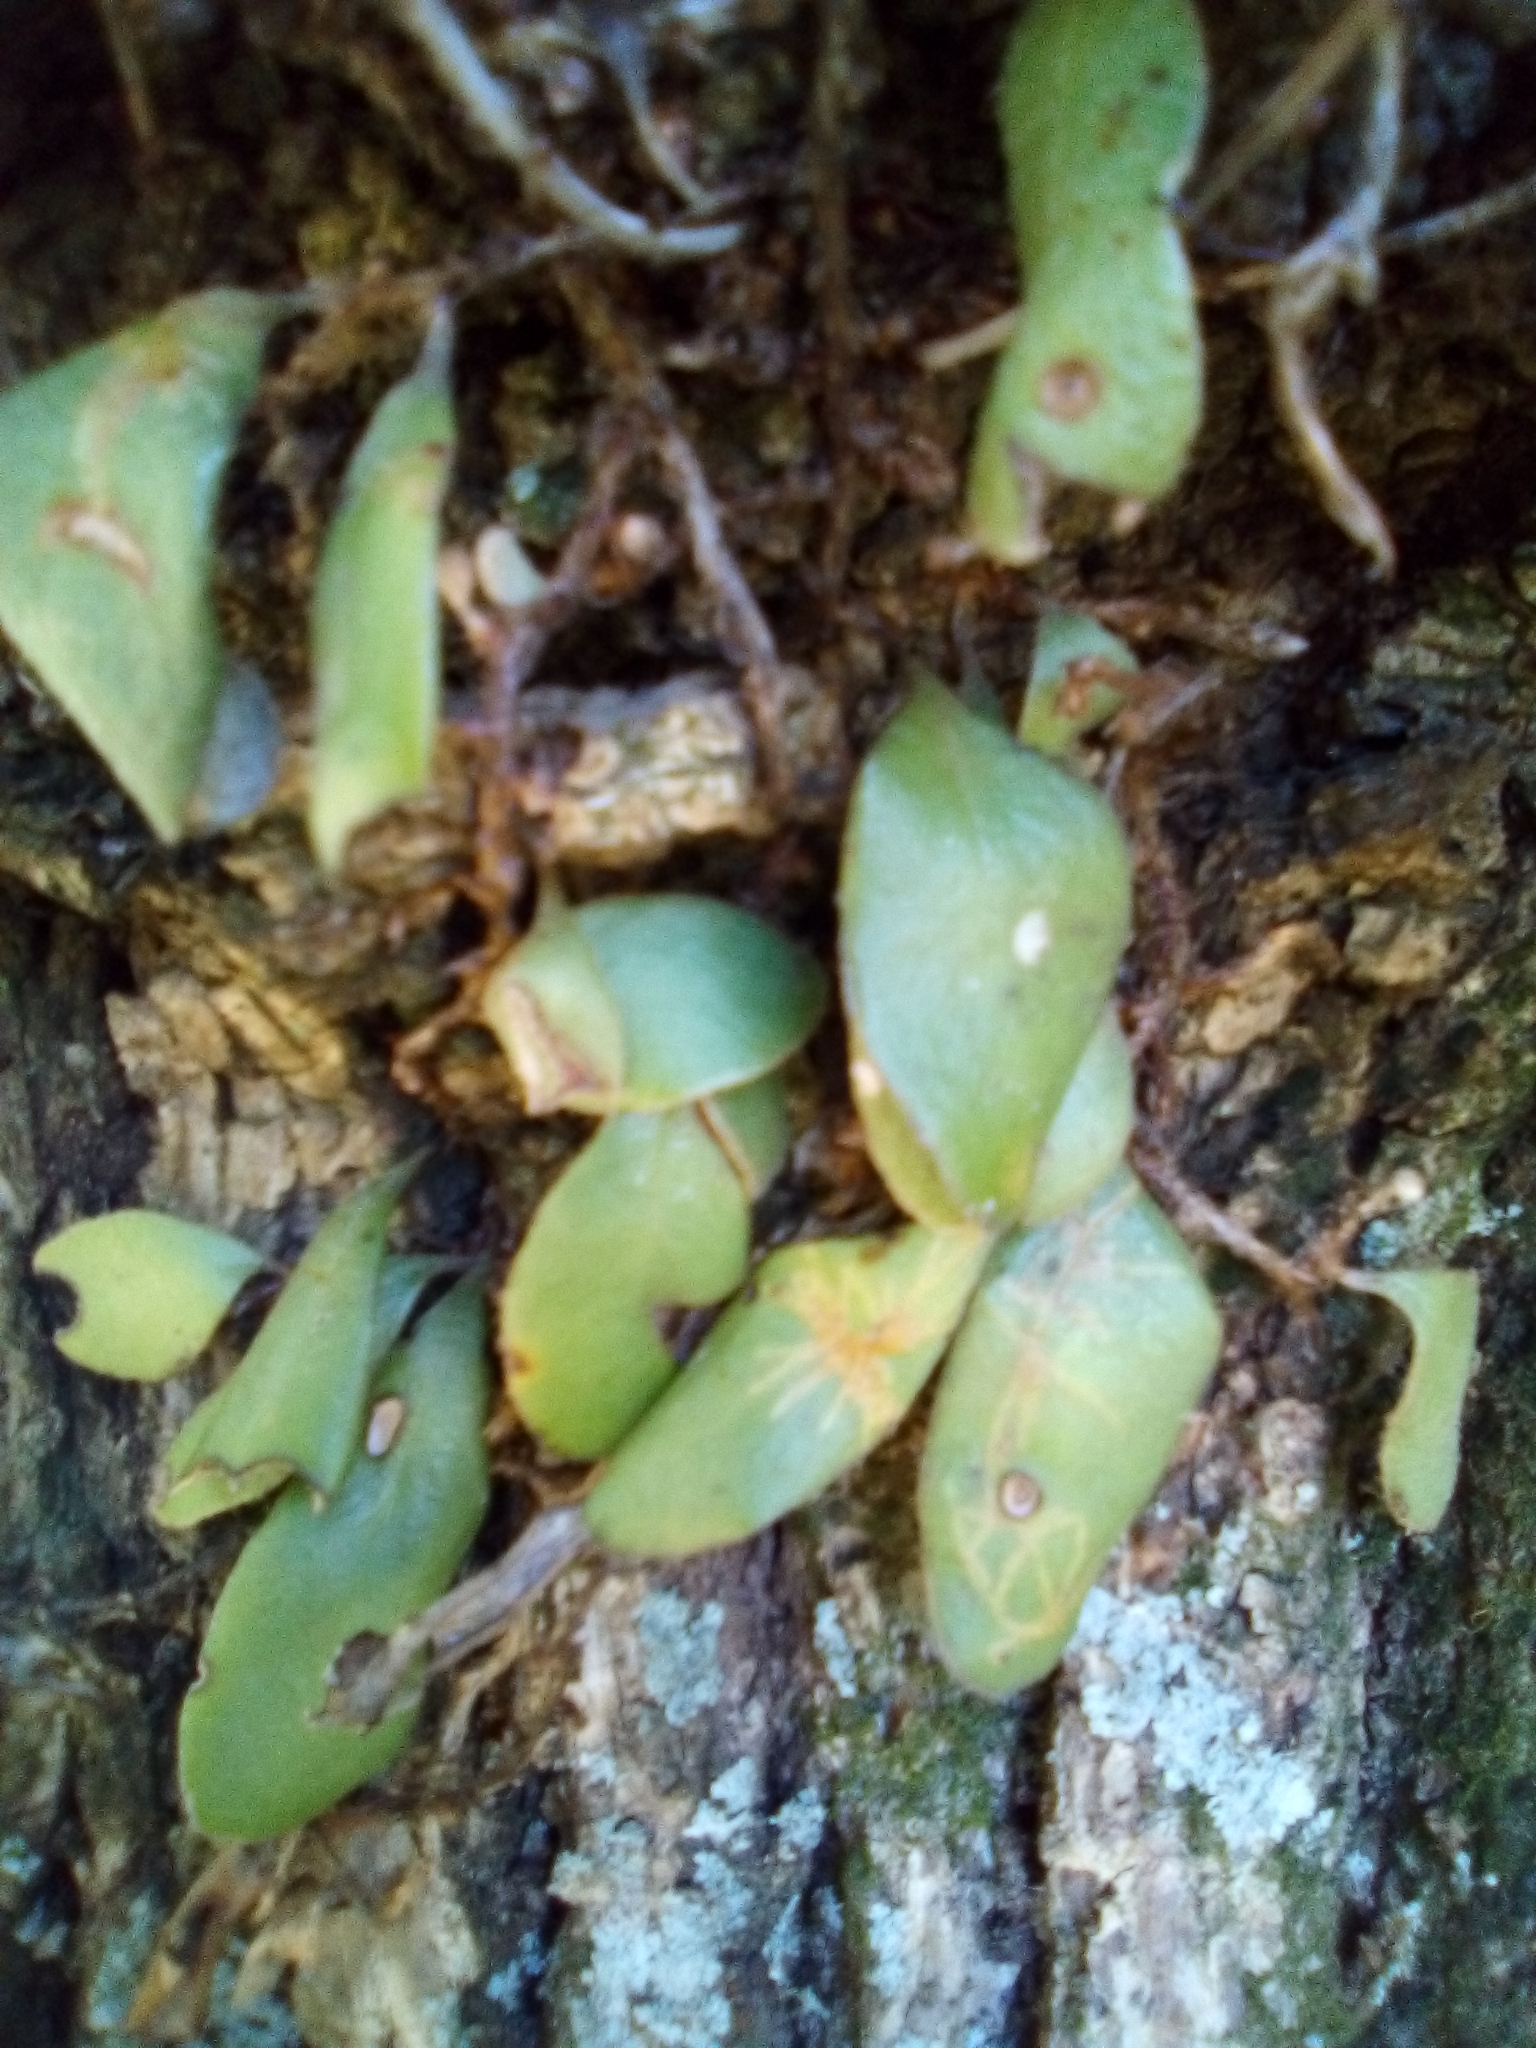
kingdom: Animalia
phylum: Arthropoda
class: Insecta
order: Lepidoptera
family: Tortricidae
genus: Philocryptica
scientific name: Philocryptica polypodii
